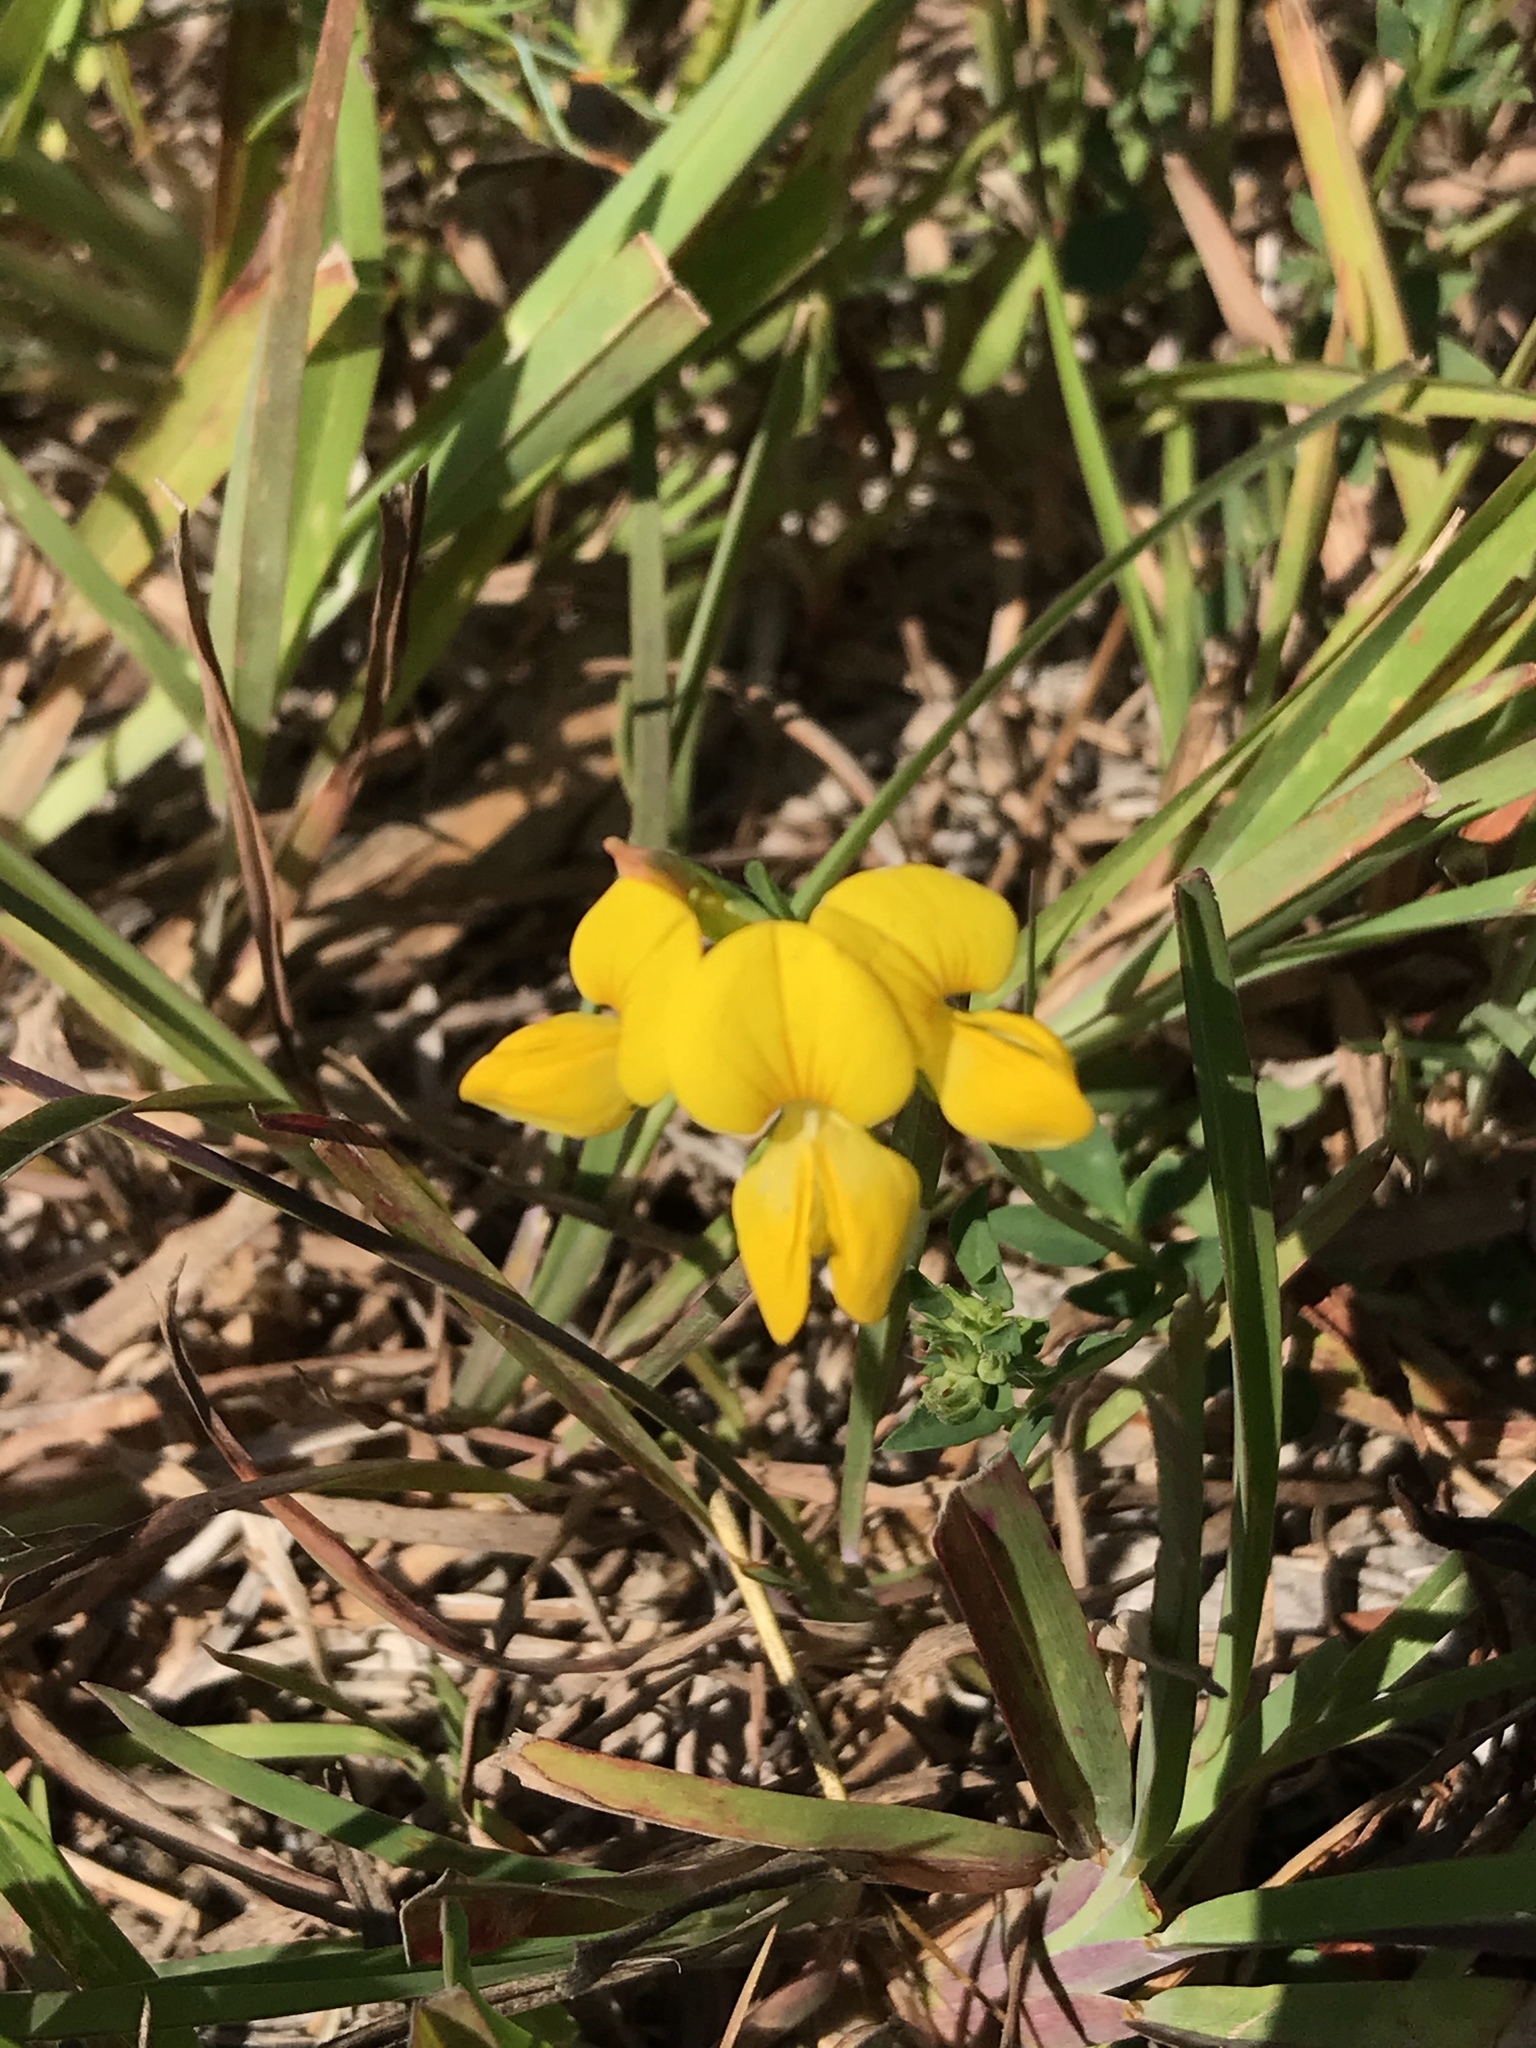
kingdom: Plantae
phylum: Tracheophyta
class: Magnoliopsida
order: Fabales
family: Fabaceae
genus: Lotus
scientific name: Lotus corniculatus
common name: Common bird's-foot-trefoil
